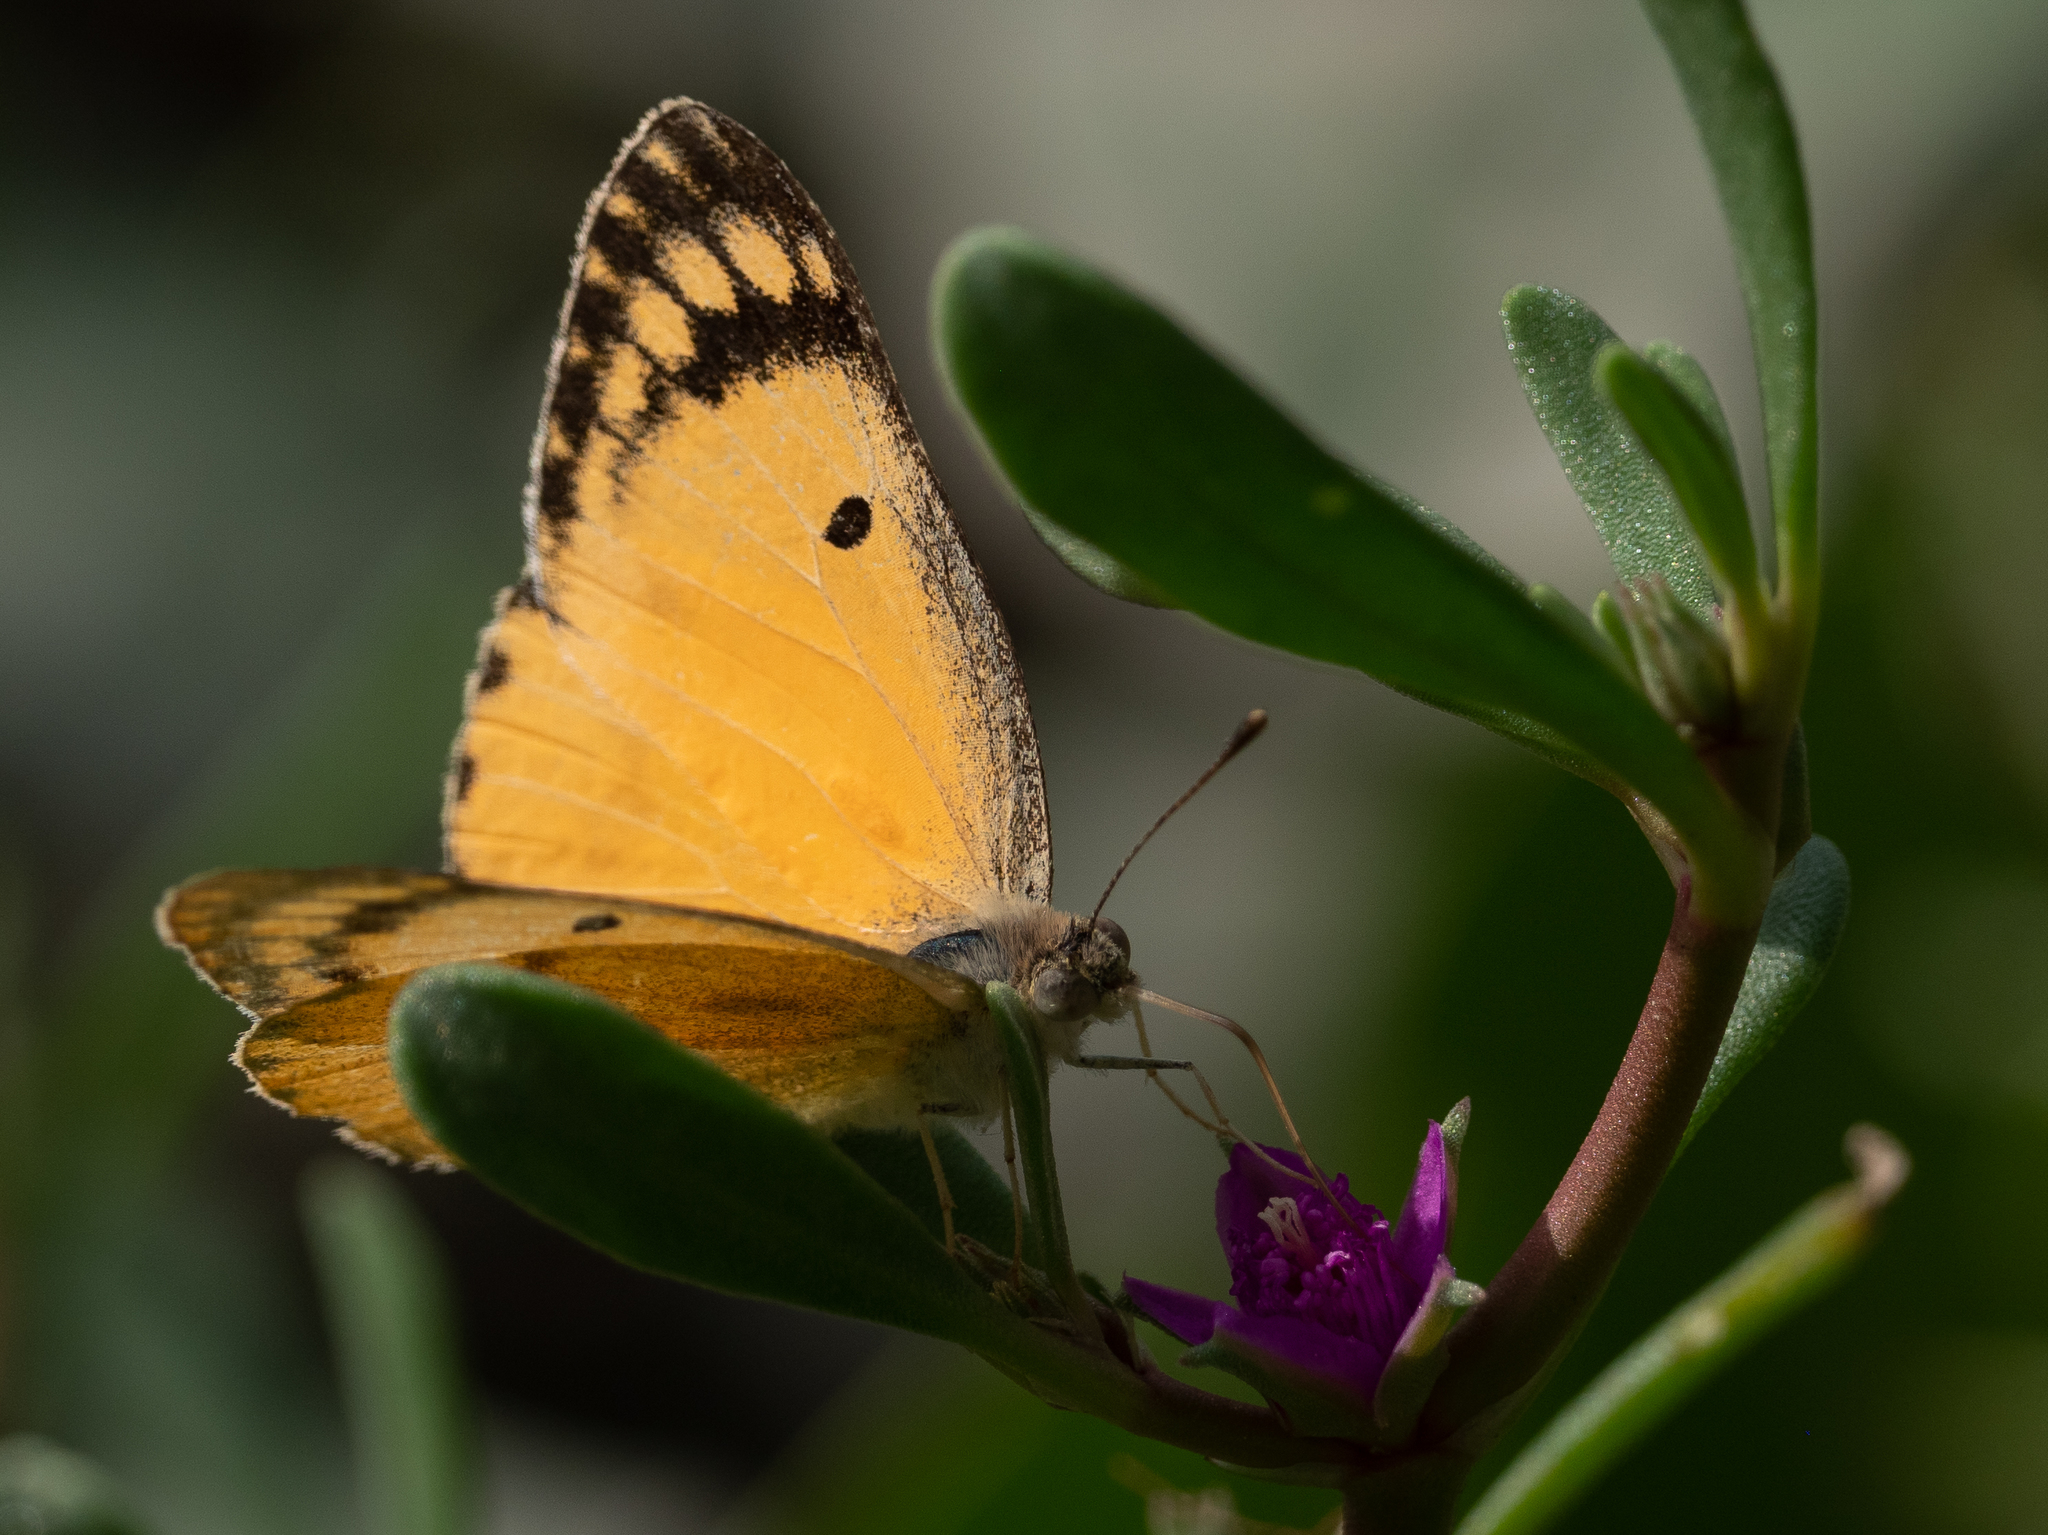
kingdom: Animalia
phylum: Arthropoda
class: Insecta
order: Lepidoptera
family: Pieridae
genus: Colotis
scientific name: Colotis fausta
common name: Large salmon arab
